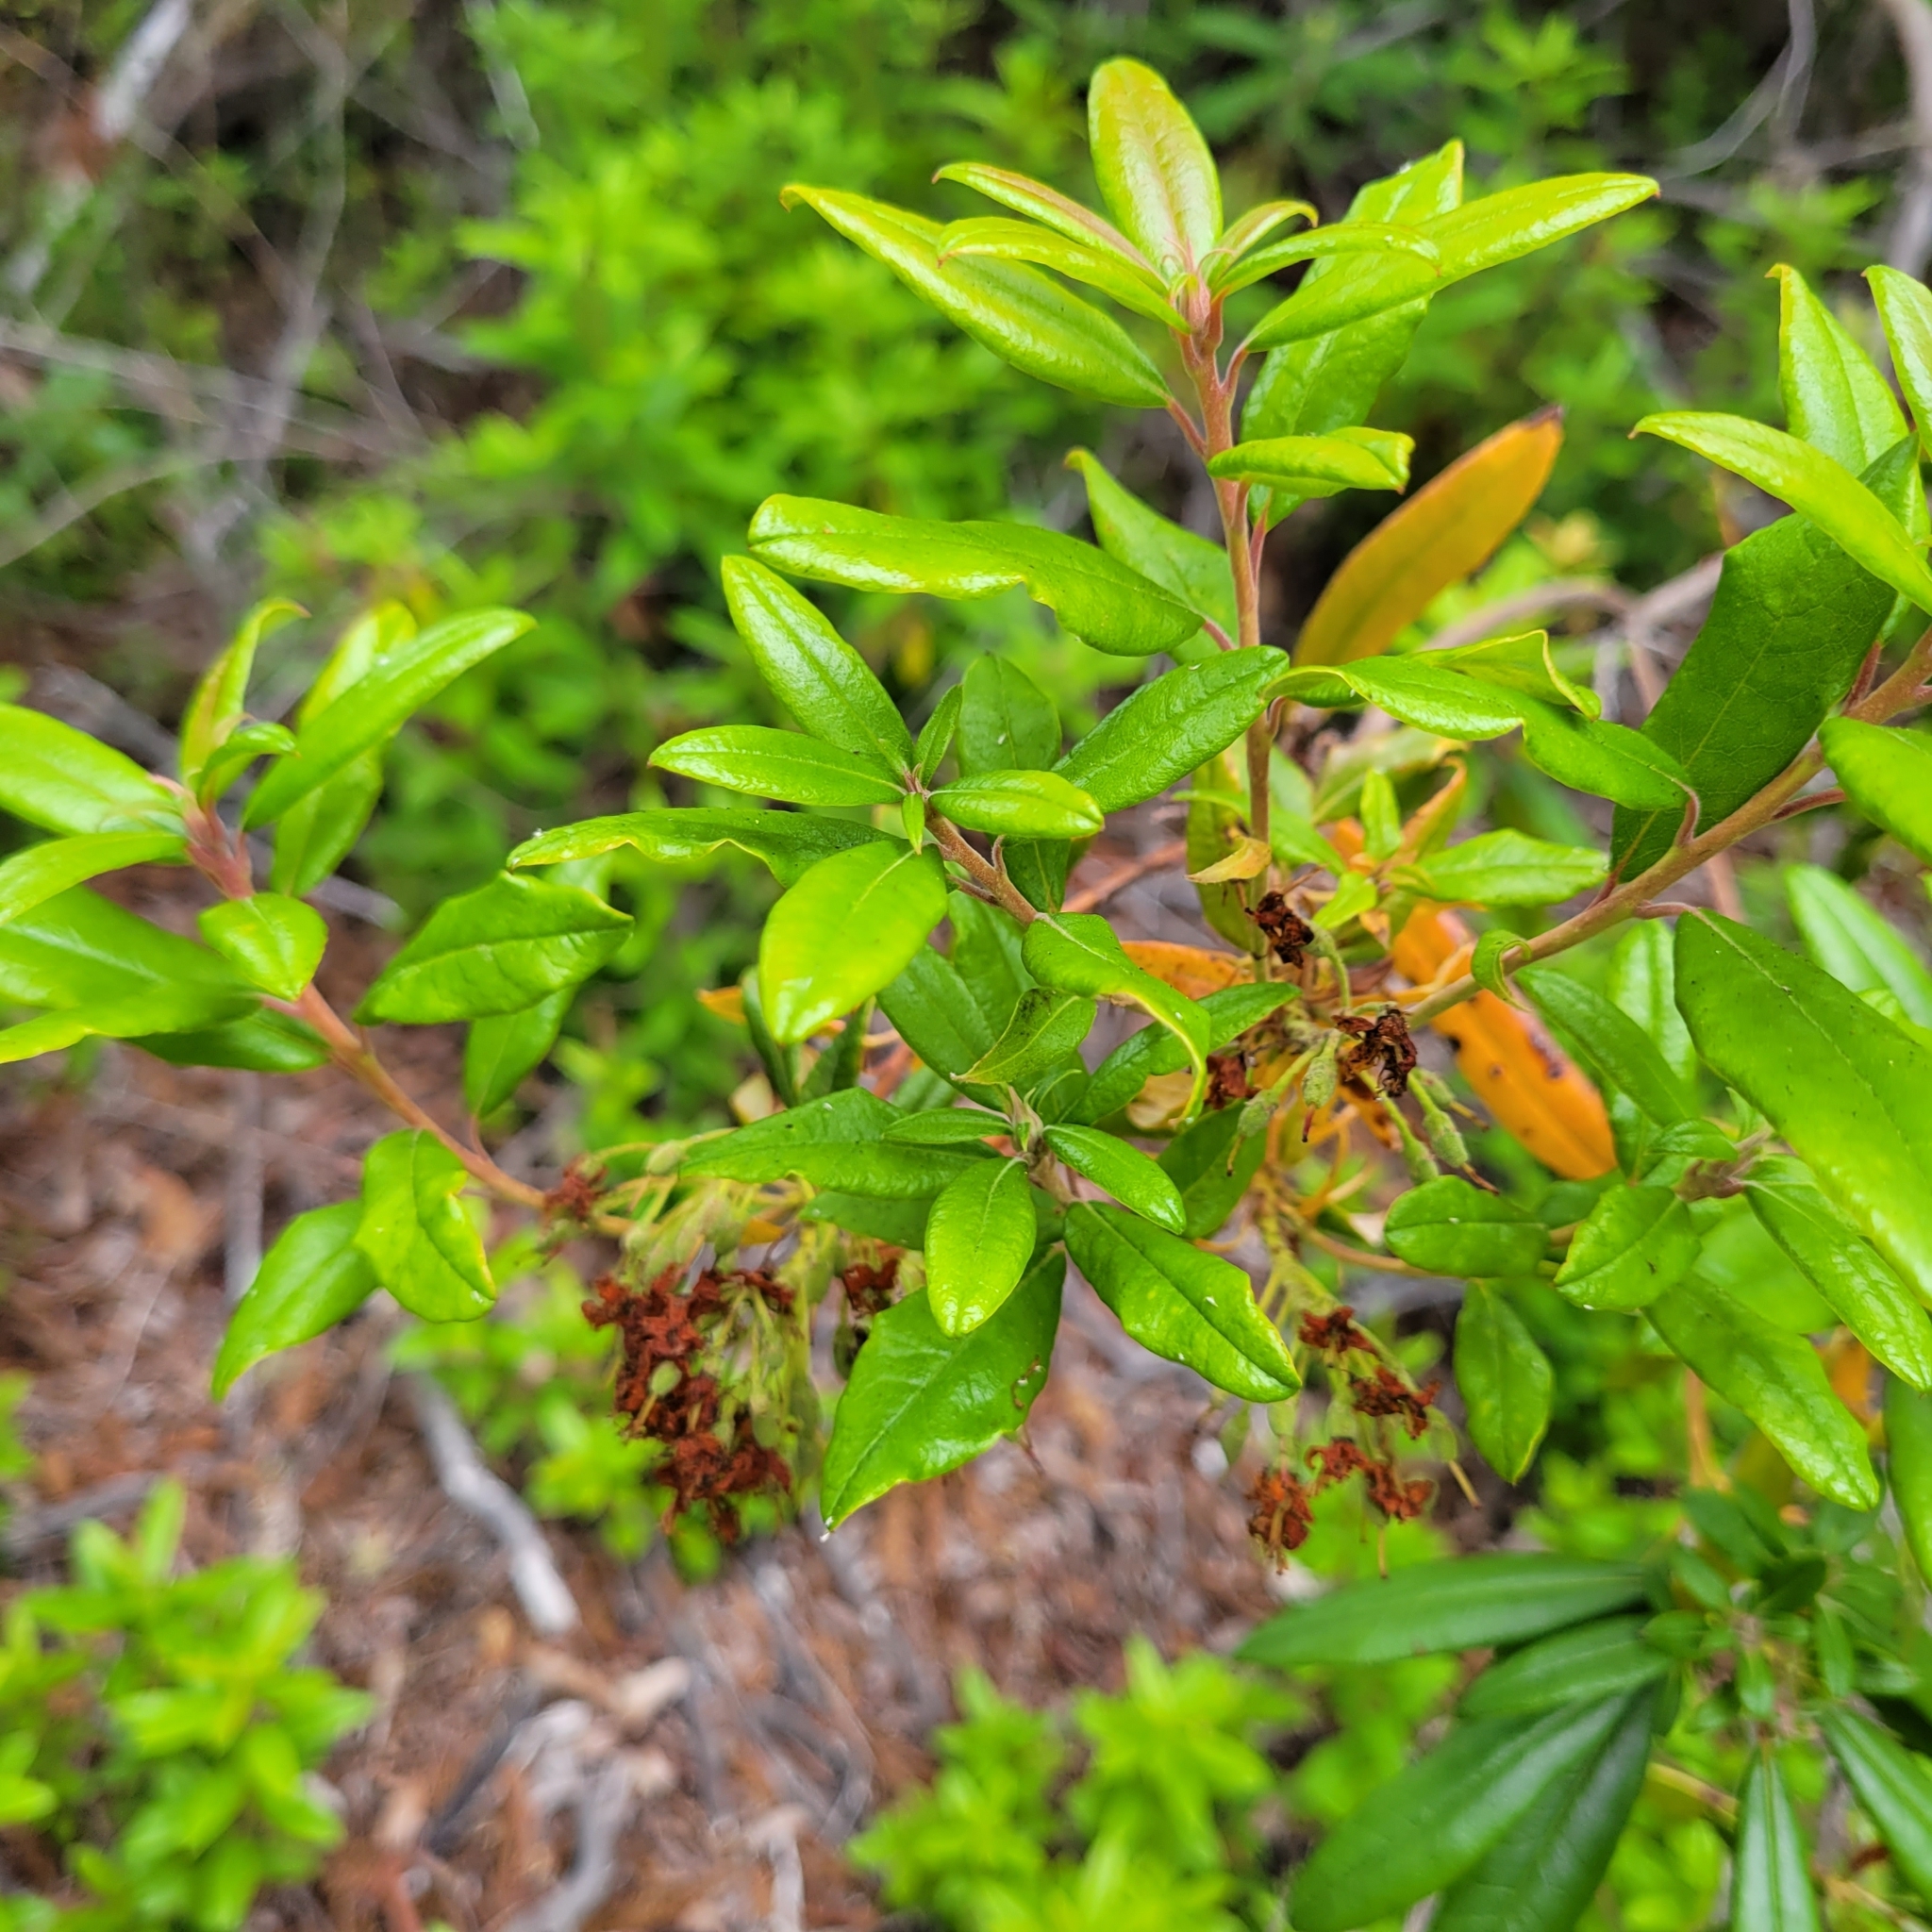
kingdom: Plantae
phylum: Tracheophyta
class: Magnoliopsida
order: Ericales
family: Ericaceae
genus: Rhododendron
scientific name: Rhododendron columbianum
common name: Western labrador tea
